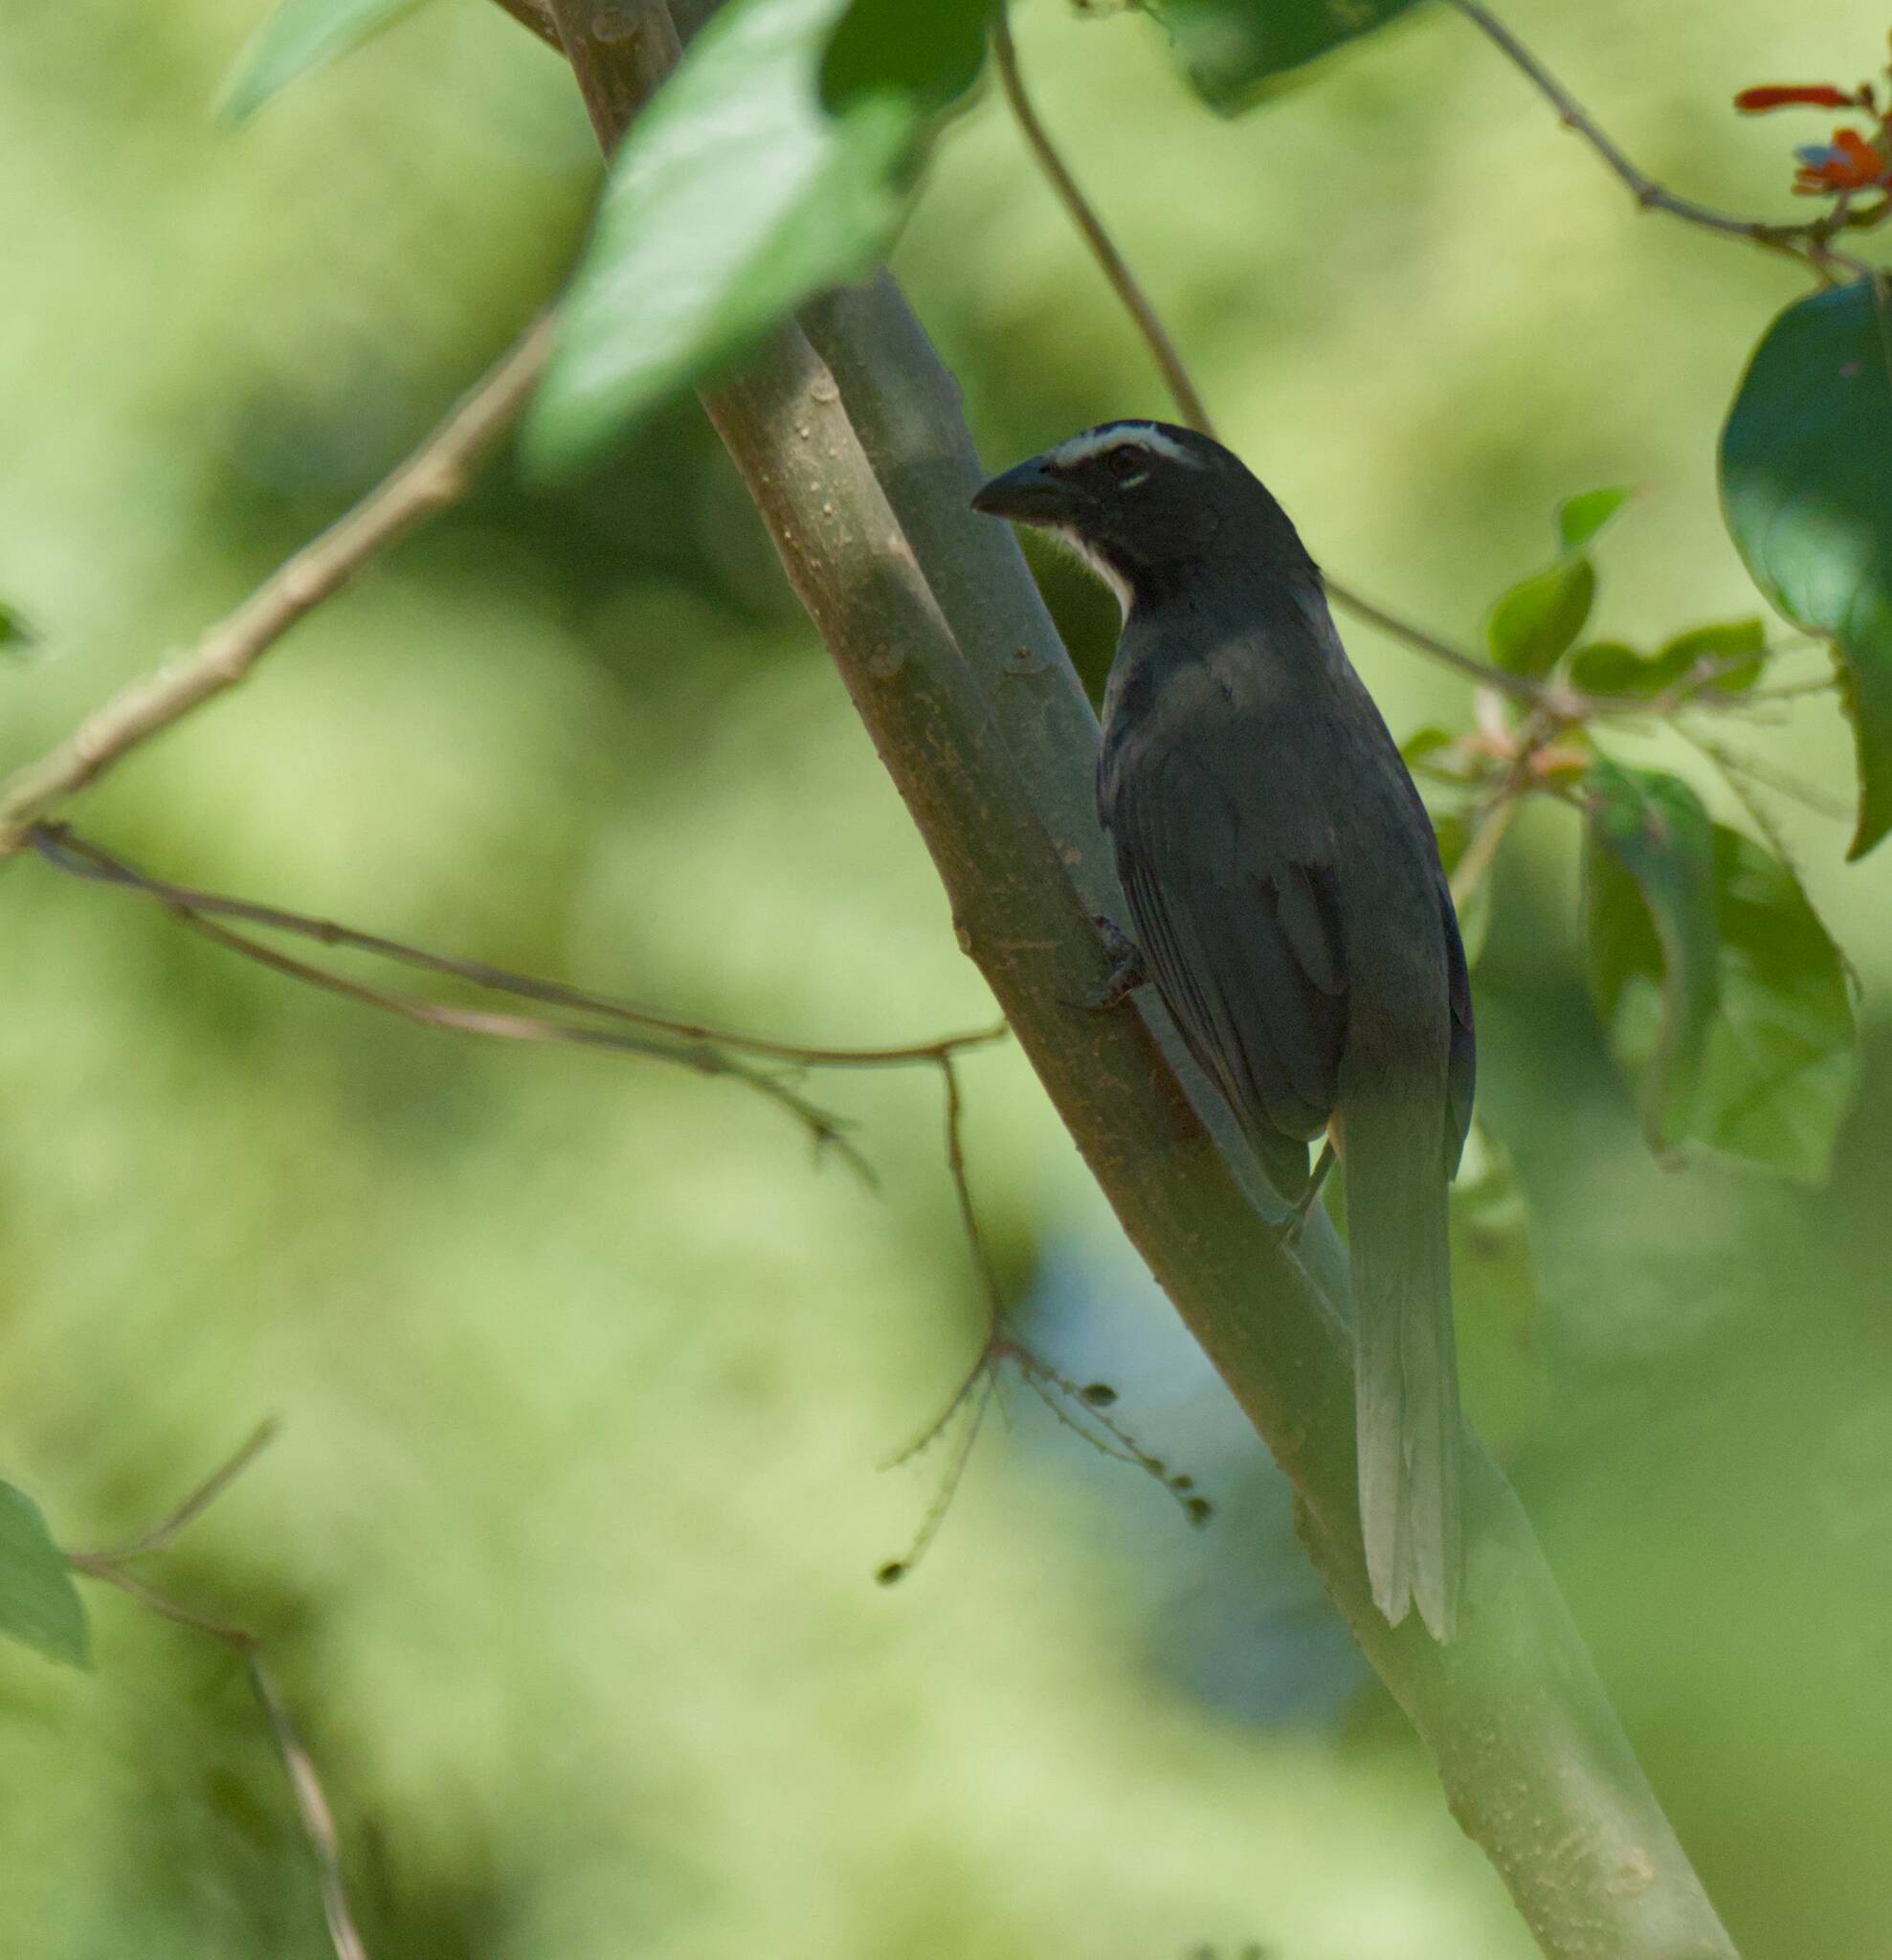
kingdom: Animalia
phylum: Chordata
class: Aves
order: Passeriformes
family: Thraupidae
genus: Saltator
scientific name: Saltator grandis
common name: Cinnamon-bellied saltator
